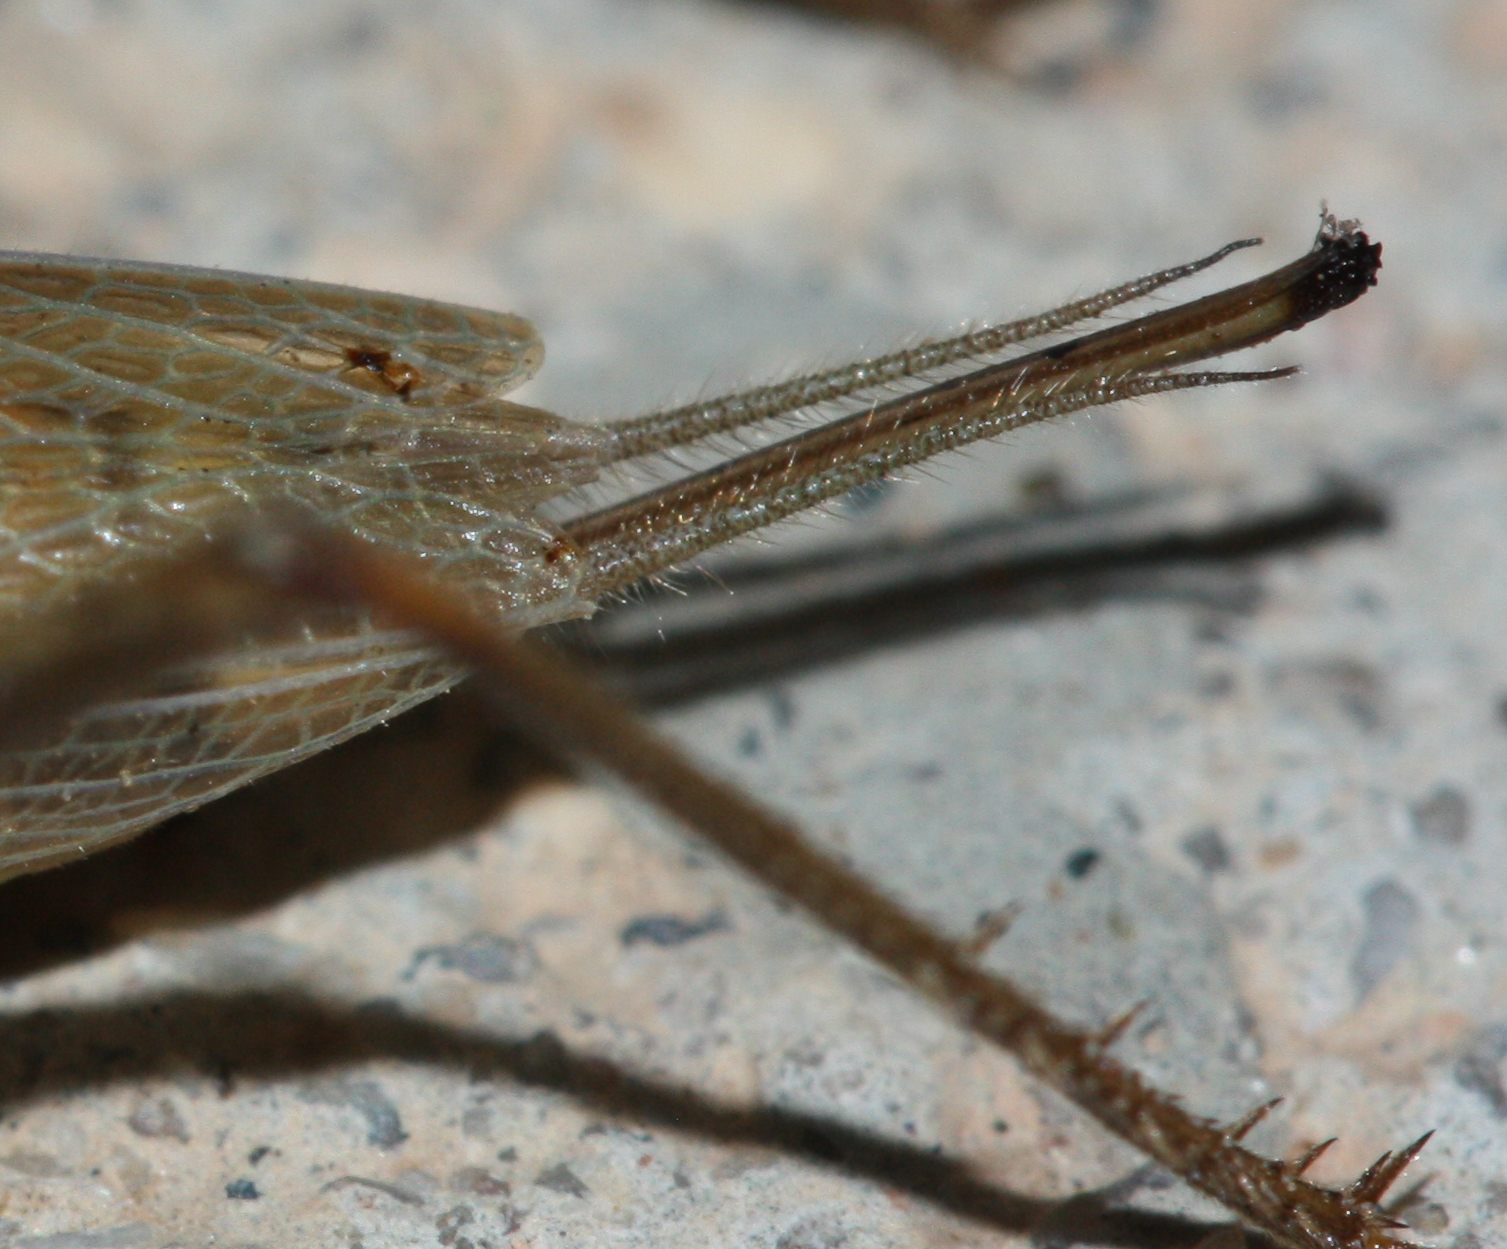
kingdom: Animalia
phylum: Arthropoda
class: Insecta
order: Orthoptera
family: Gryllidae
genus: Oecanthus
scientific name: Oecanthus californicus
